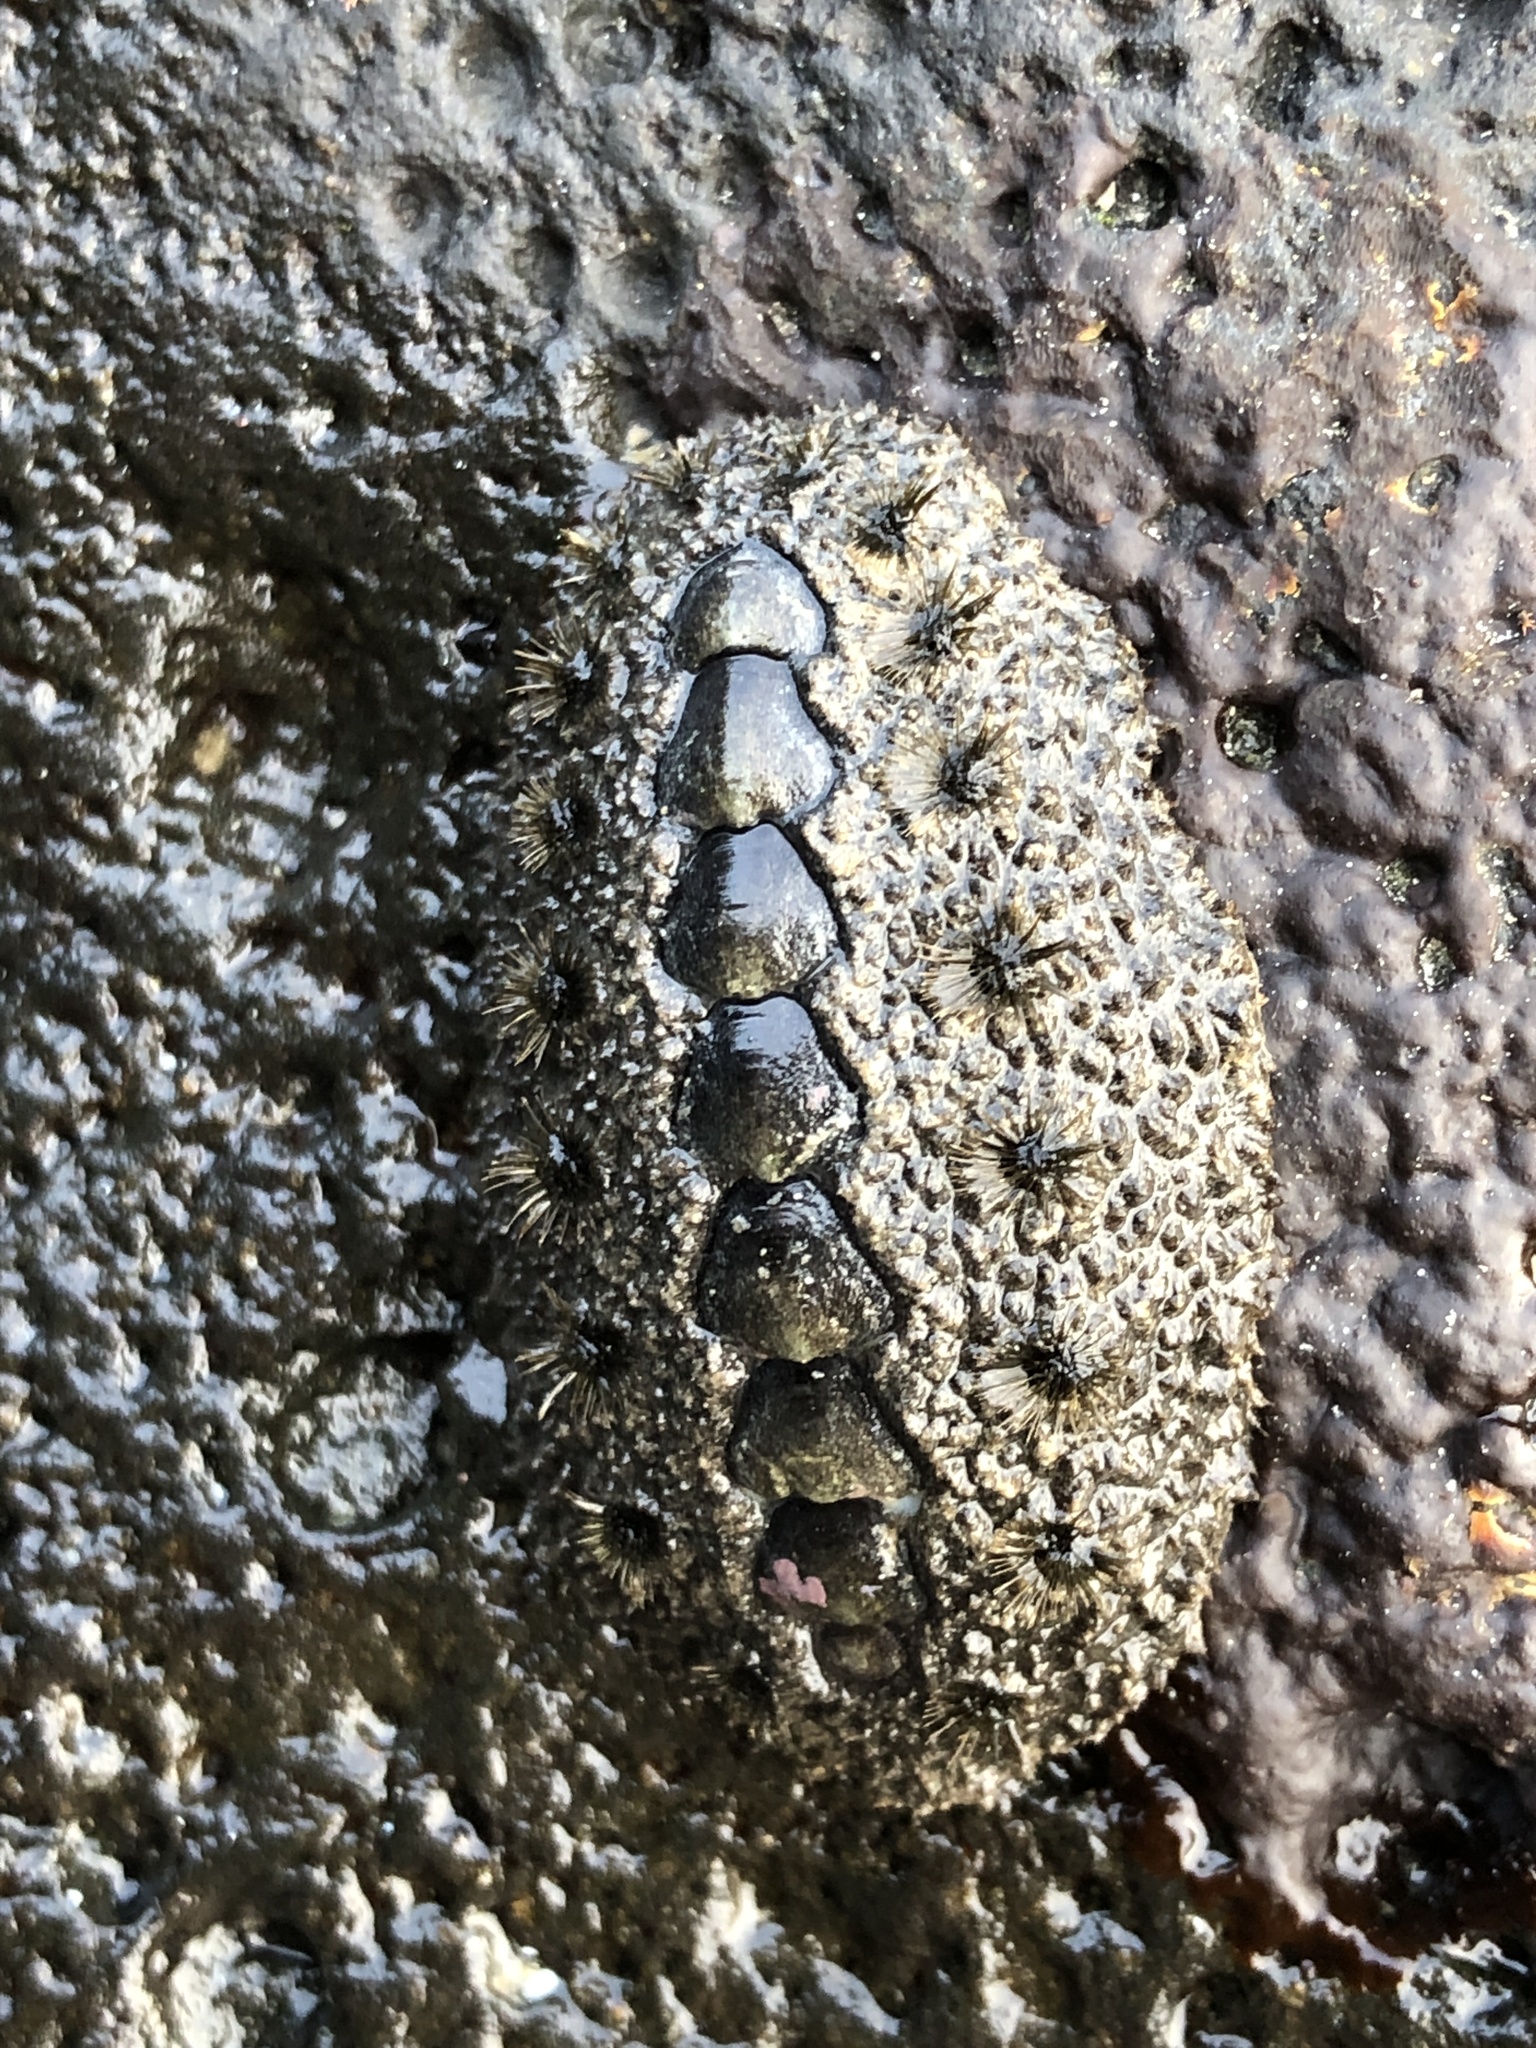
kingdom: Animalia
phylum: Mollusca
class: Polyplacophora
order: Chitonida
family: Acanthochitonidae
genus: Acanthochitona
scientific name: Acanthochitona defilippii
